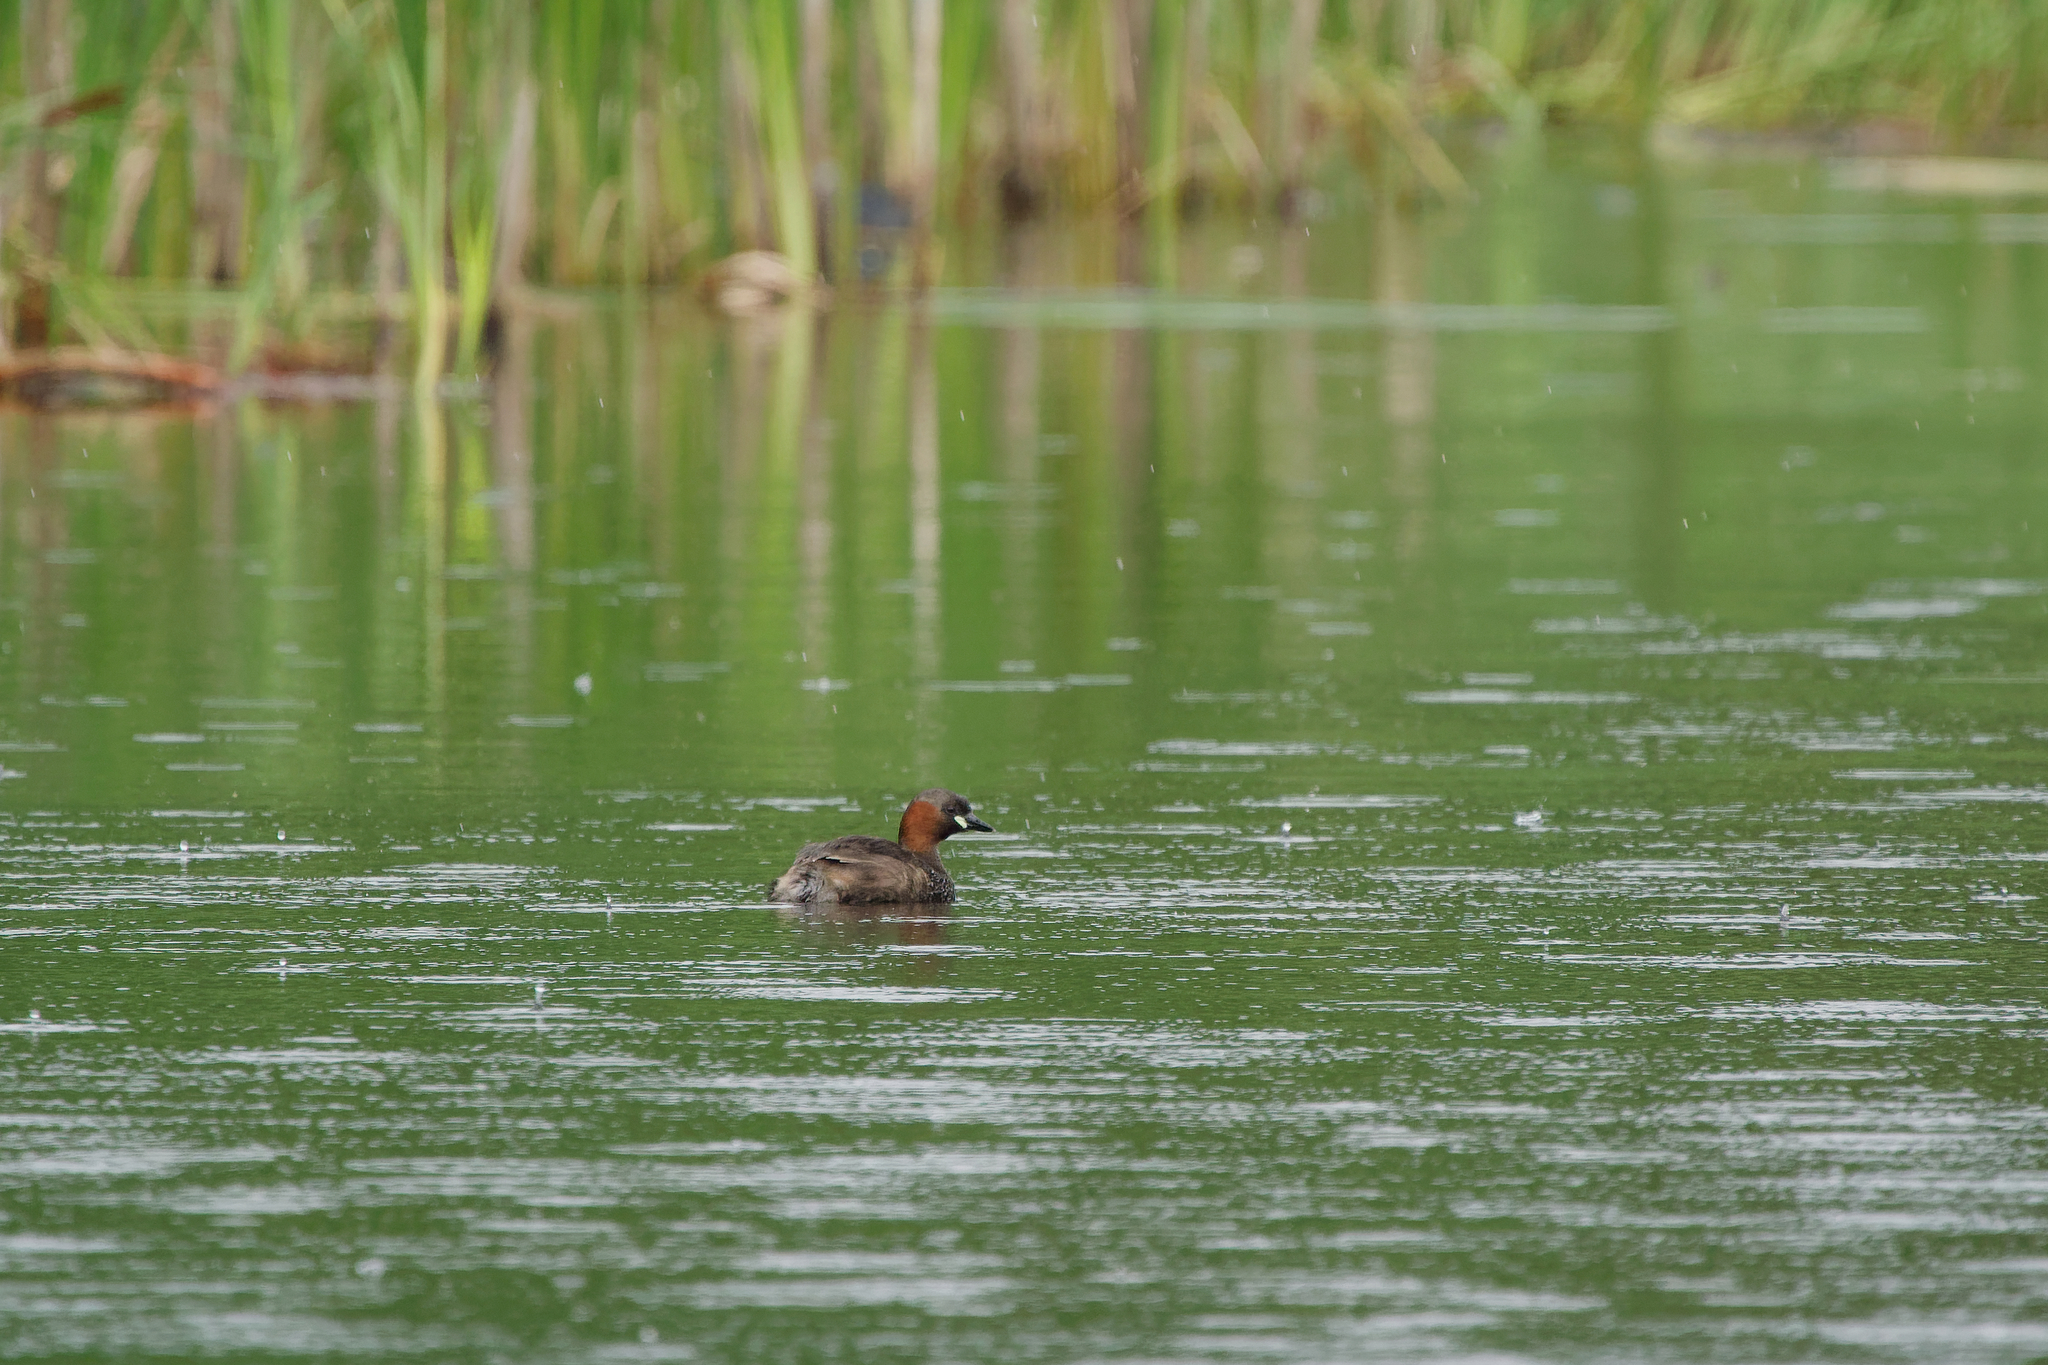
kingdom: Animalia
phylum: Chordata
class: Aves
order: Podicipediformes
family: Podicipedidae
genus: Tachybaptus
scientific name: Tachybaptus ruficollis
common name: Little grebe
